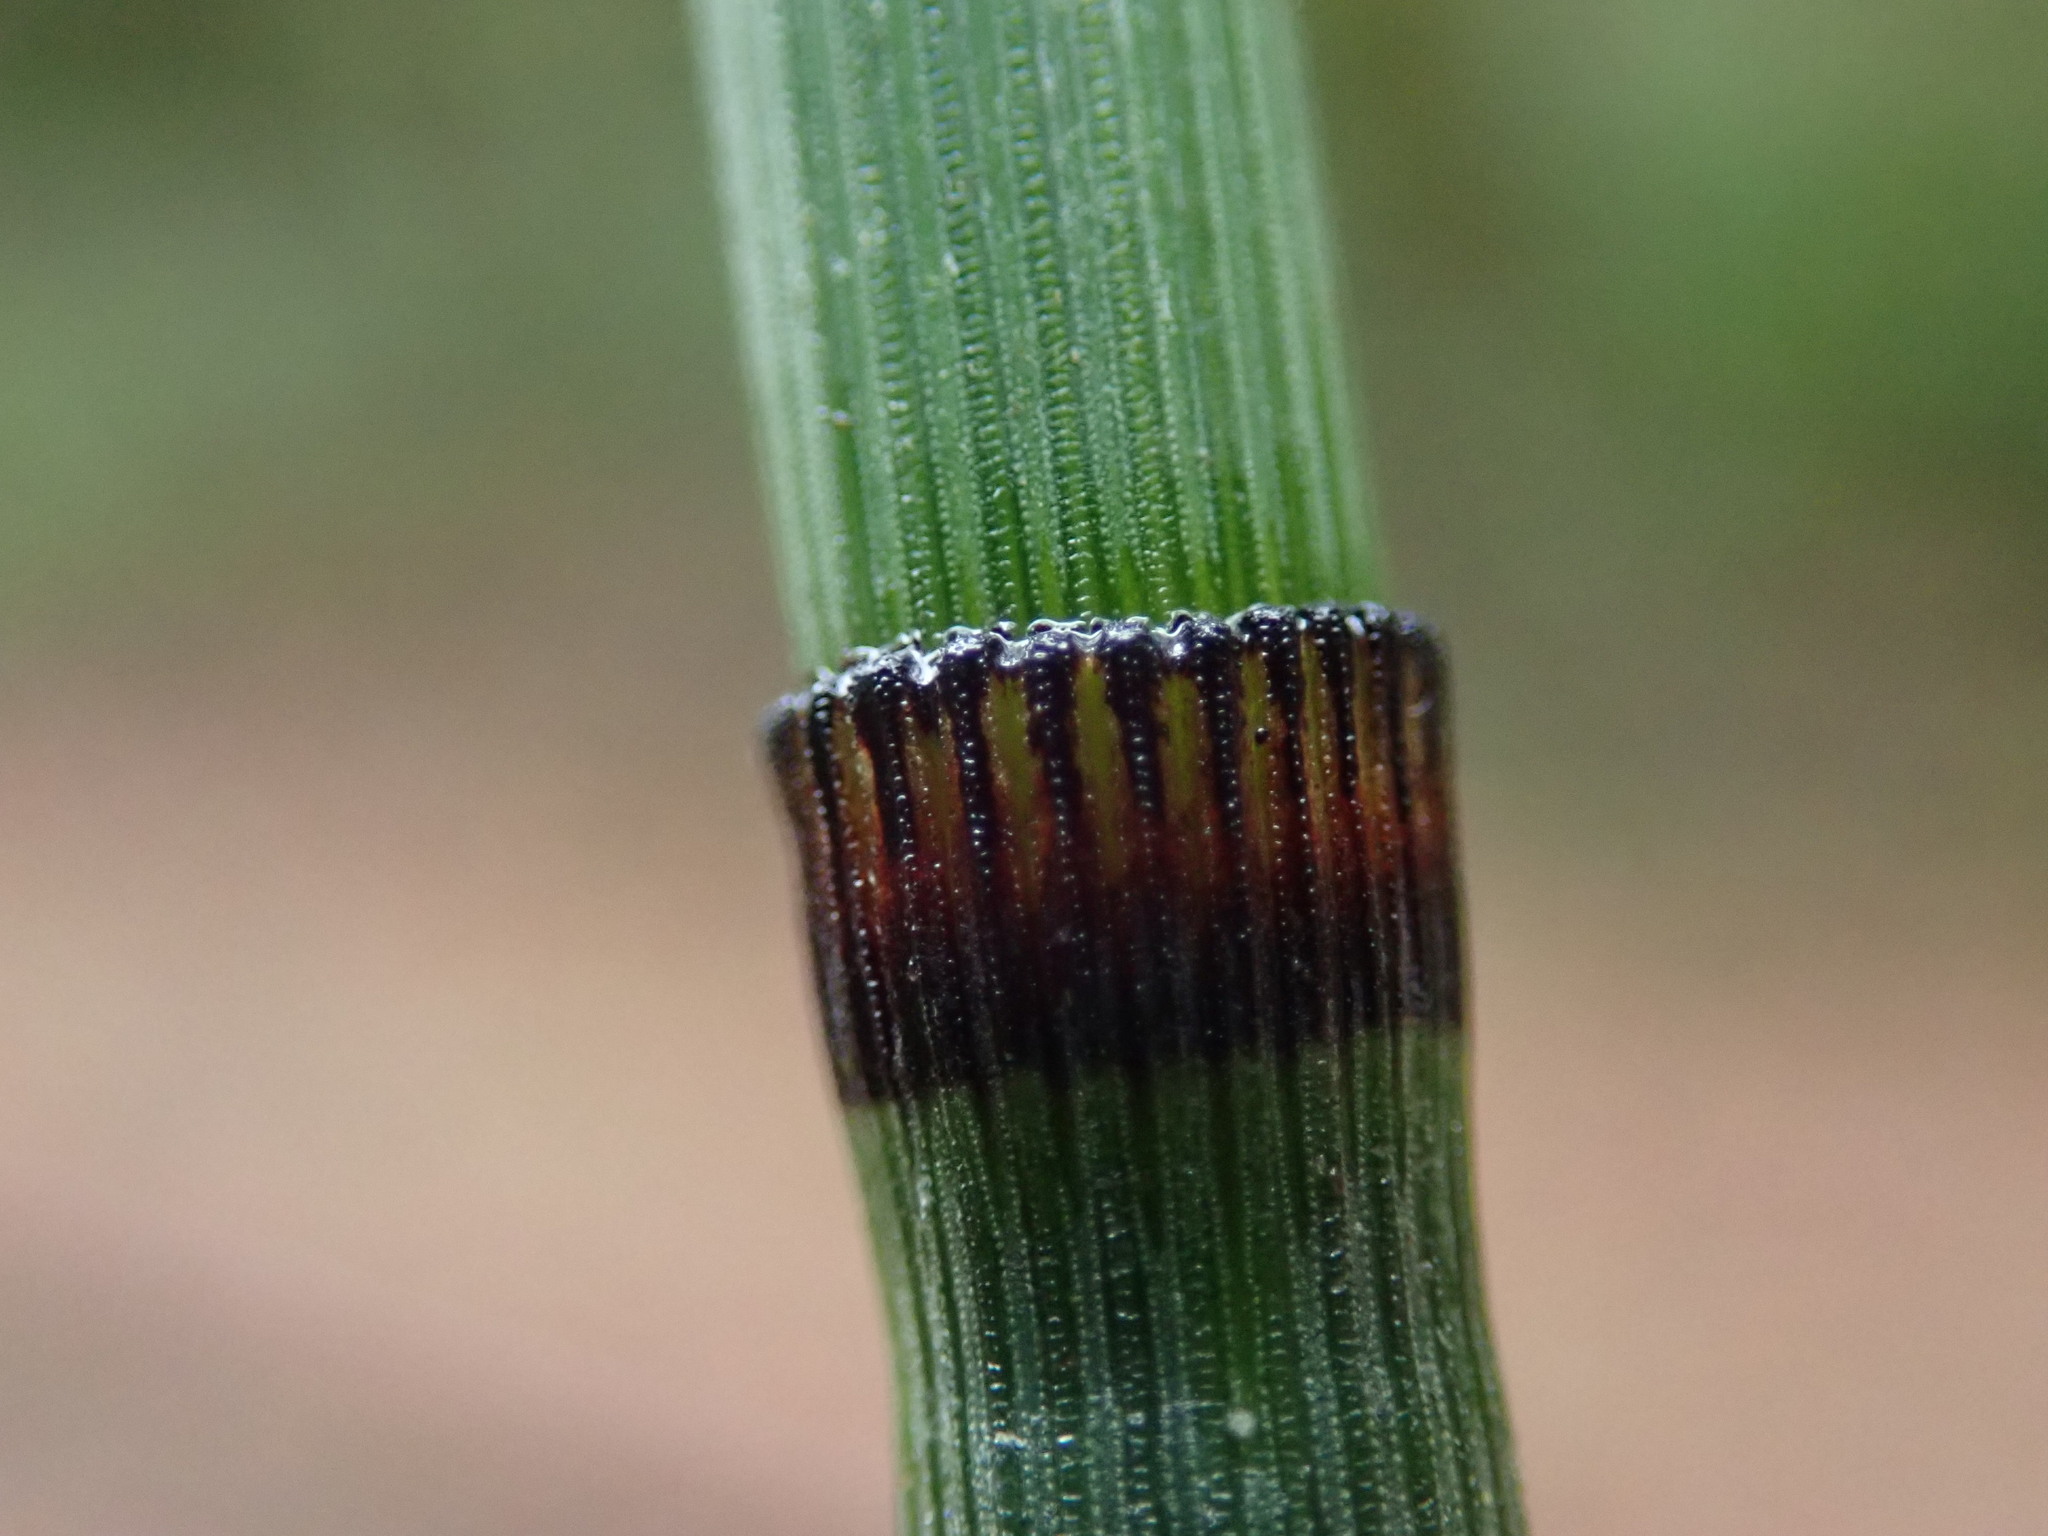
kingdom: Plantae
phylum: Tracheophyta
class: Polypodiopsida
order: Equisetales
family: Equisetaceae
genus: Equisetum
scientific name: Equisetum praealtum
